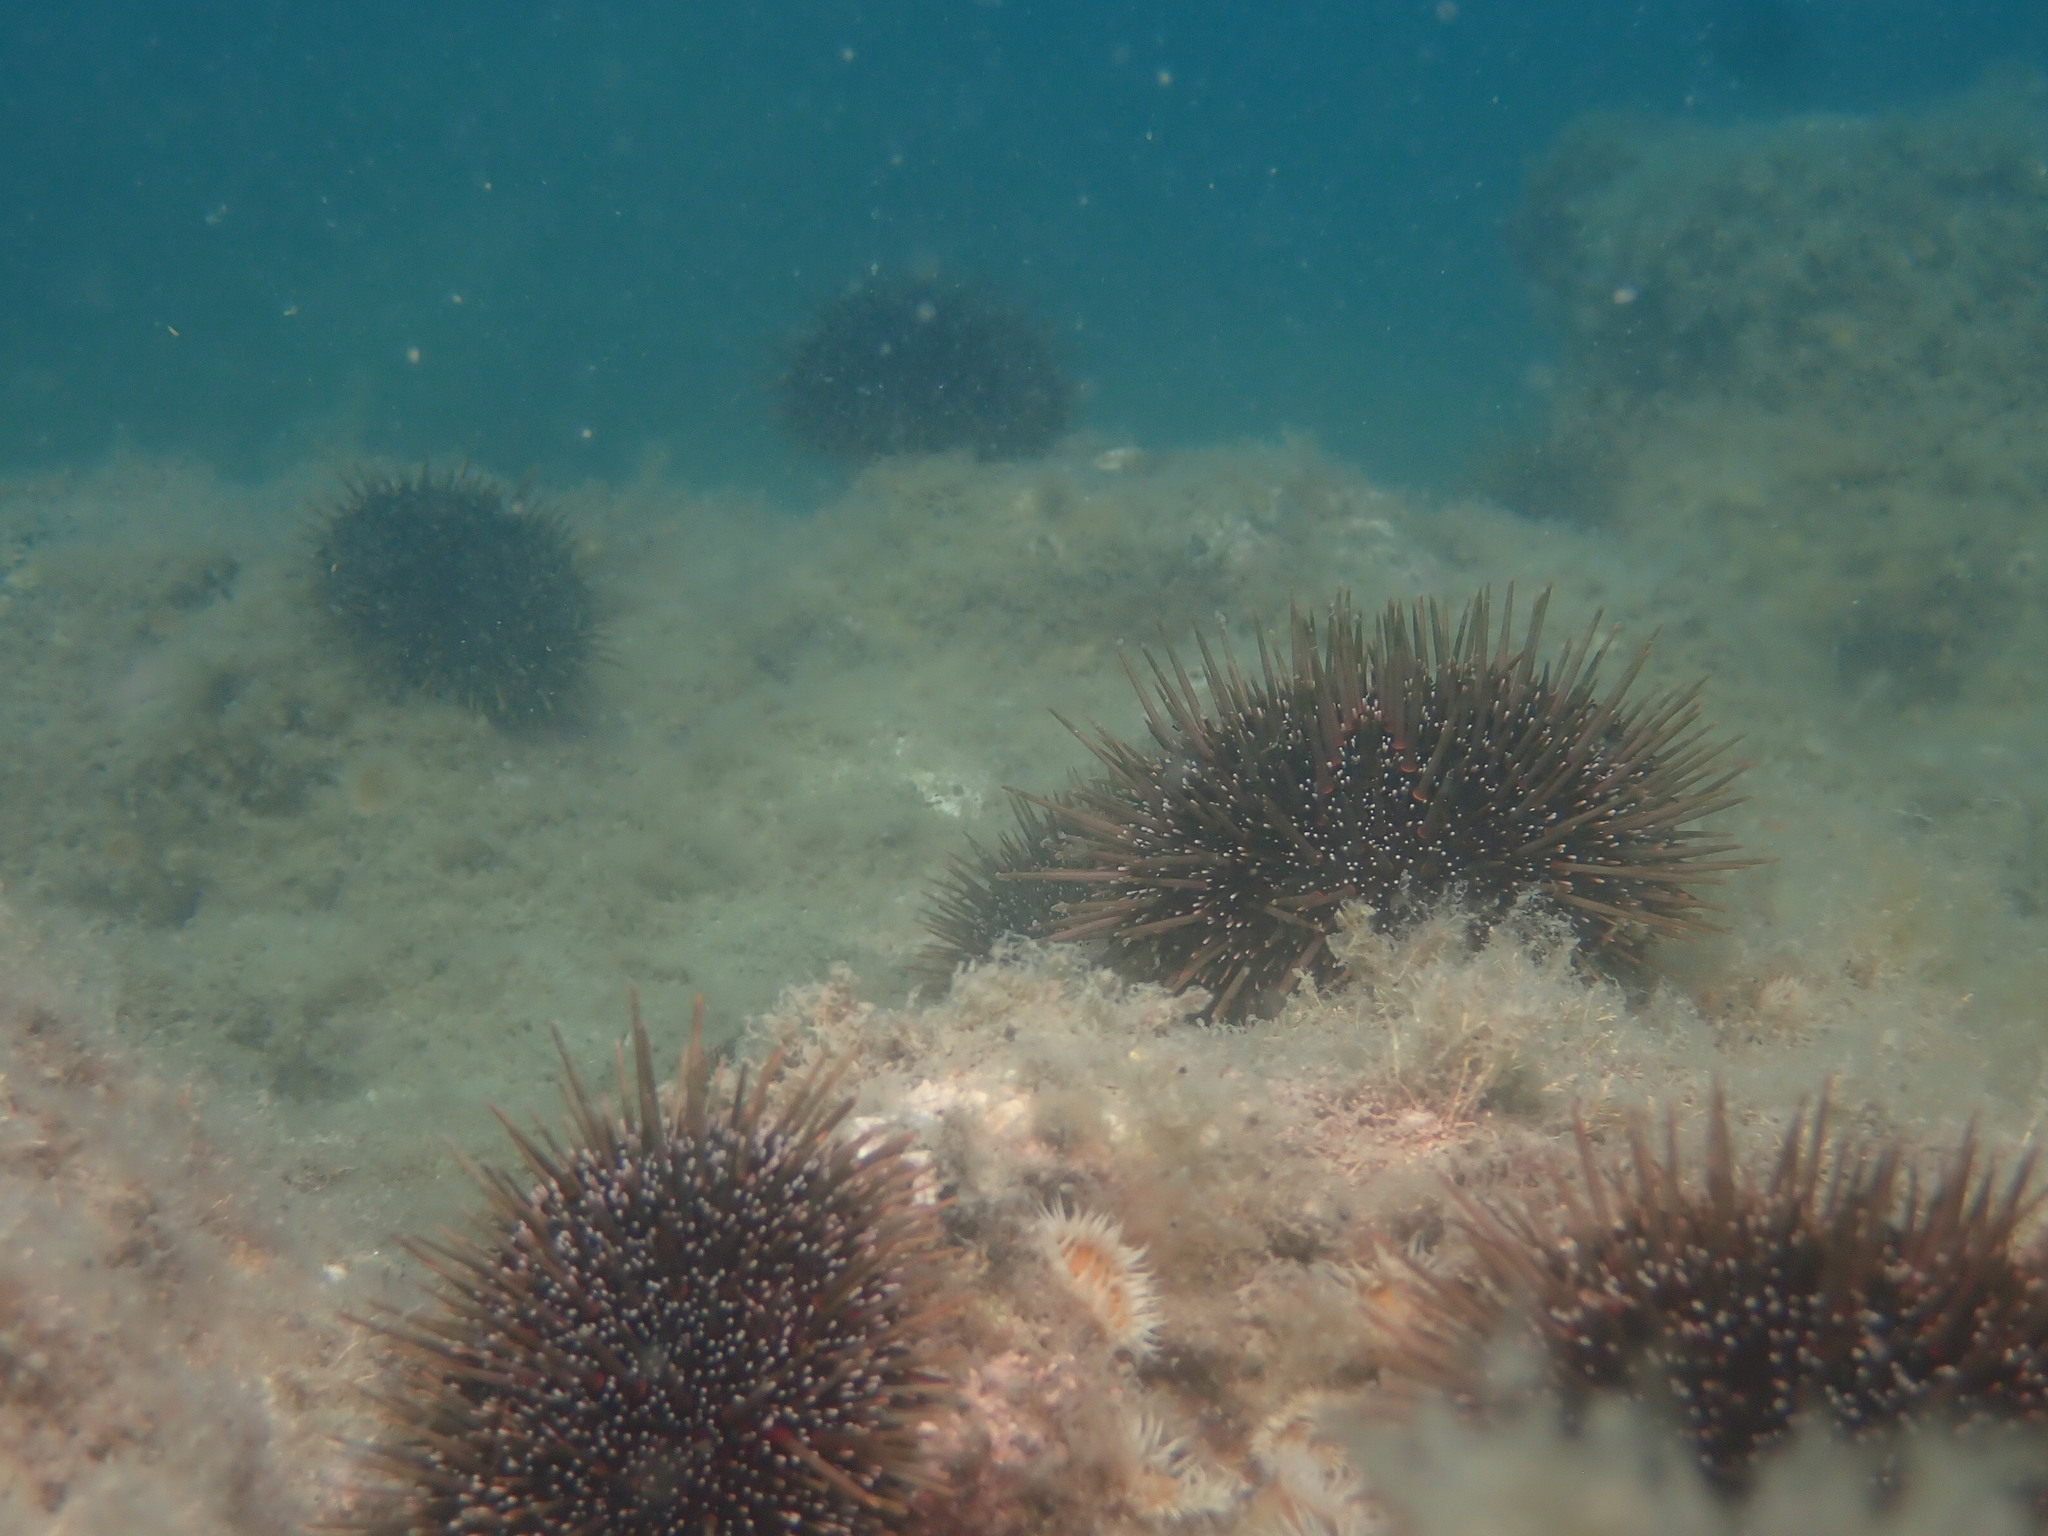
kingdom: Animalia
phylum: Echinodermata
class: Echinoidea
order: Camarodonta
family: Echinometridae
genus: Evechinus
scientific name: Evechinus chloroticus
